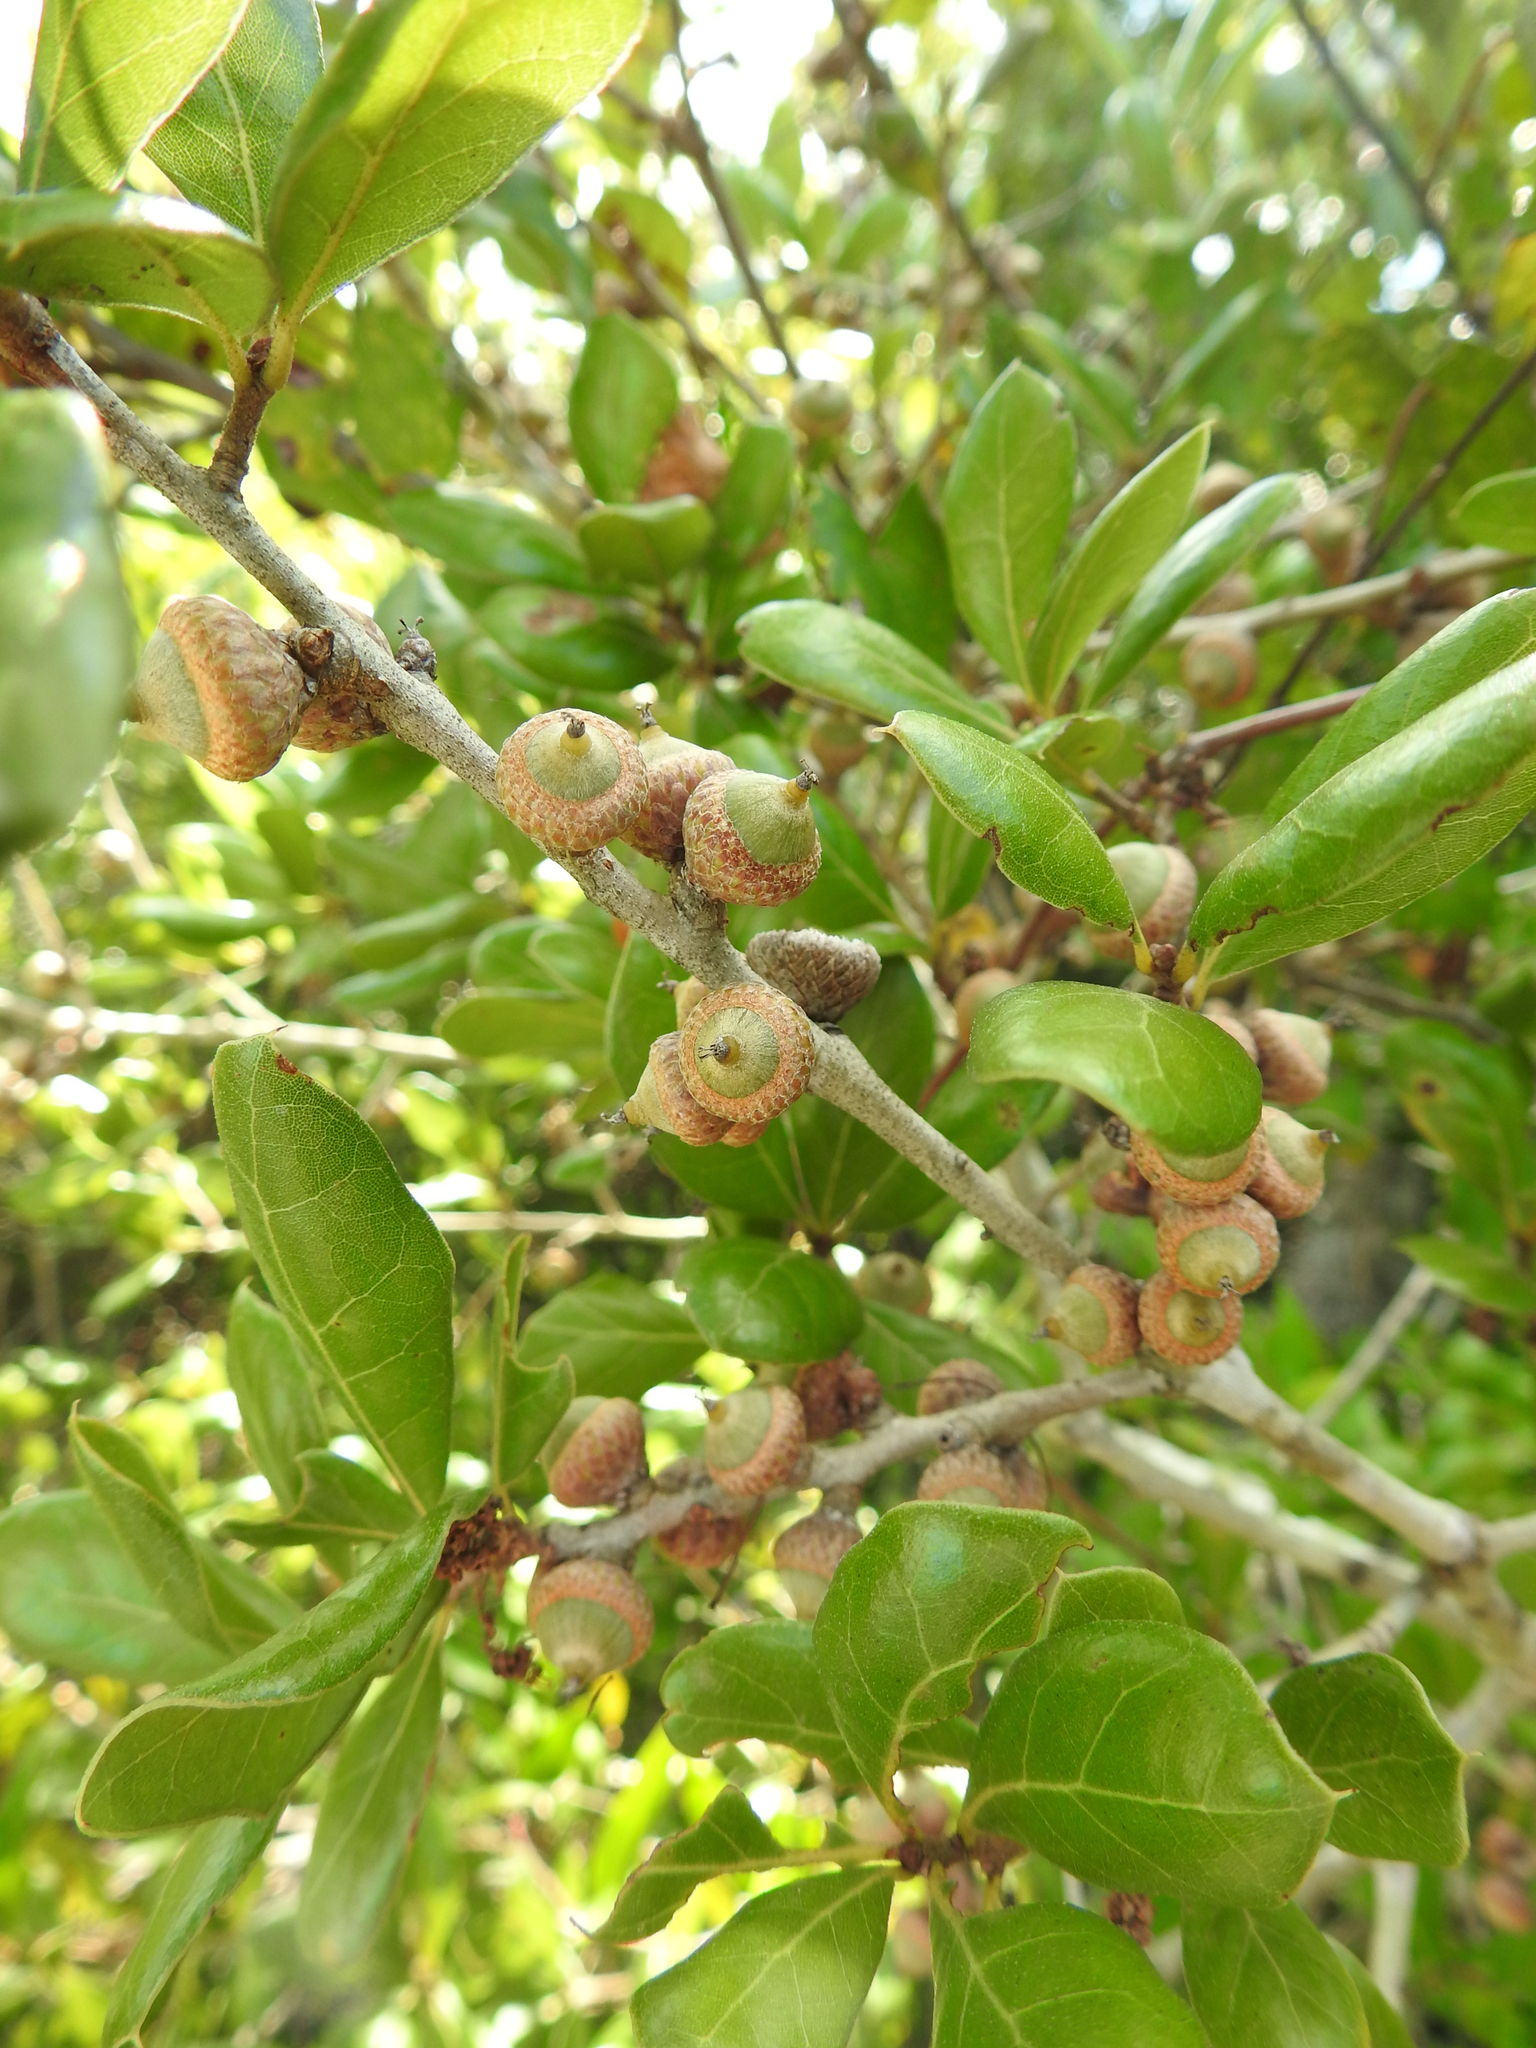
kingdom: Plantae
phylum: Tracheophyta
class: Magnoliopsida
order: Fagales
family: Fagaceae
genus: Quercus
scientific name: Quercus myrtifolia
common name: Myrtle oak
